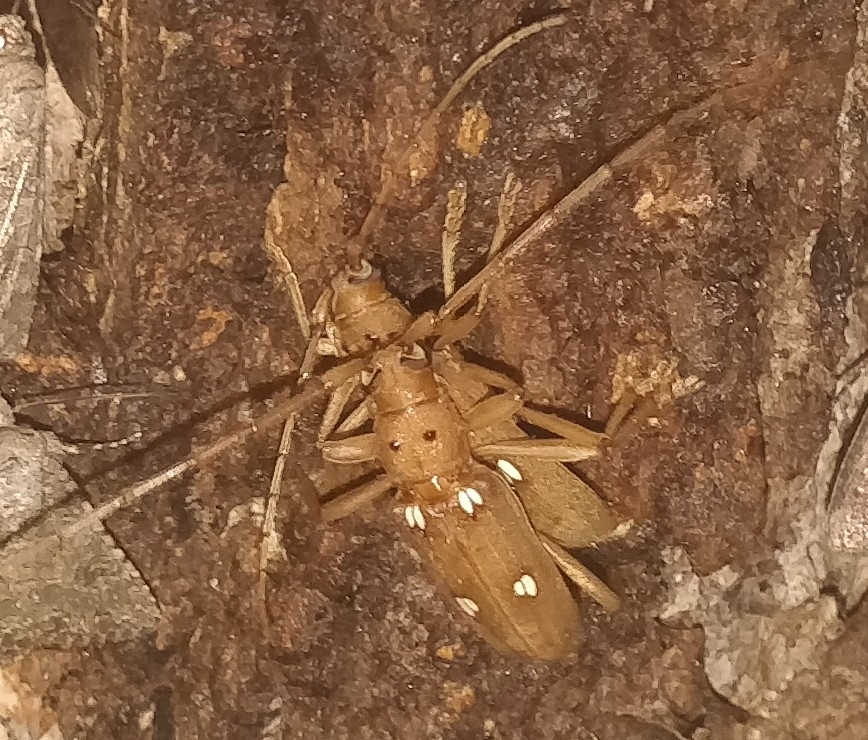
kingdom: Animalia
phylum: Arthropoda
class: Insecta
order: Coleoptera
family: Cerambycidae
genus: Eburia
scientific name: Eburia quadrigeminata
